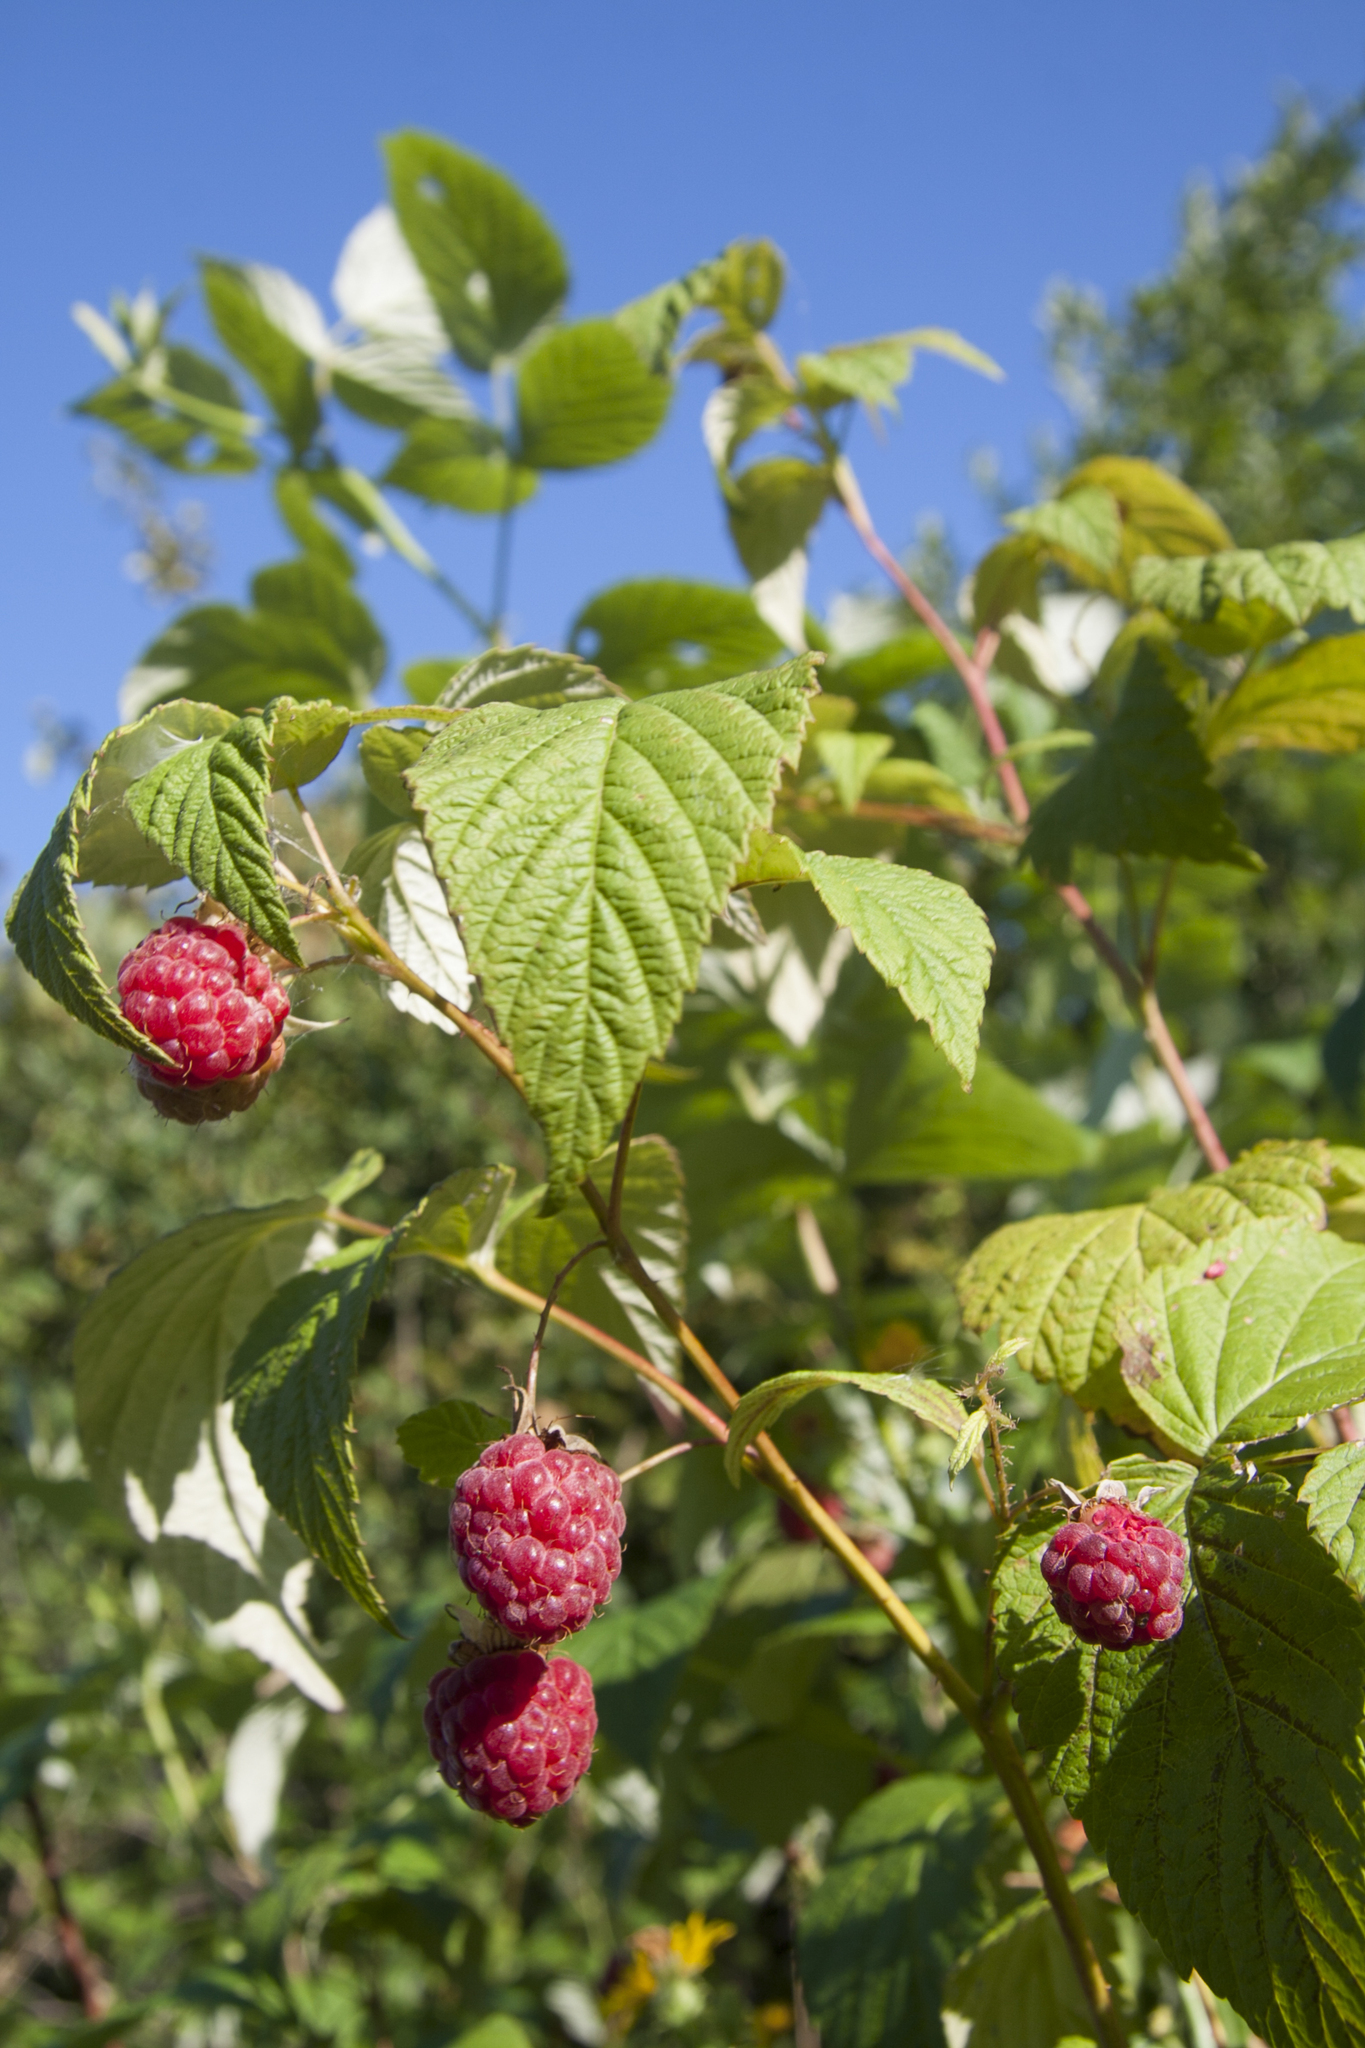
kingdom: Plantae
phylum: Tracheophyta
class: Magnoliopsida
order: Rosales
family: Rosaceae
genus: Rubus
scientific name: Rubus idaeus
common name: Raspberry
